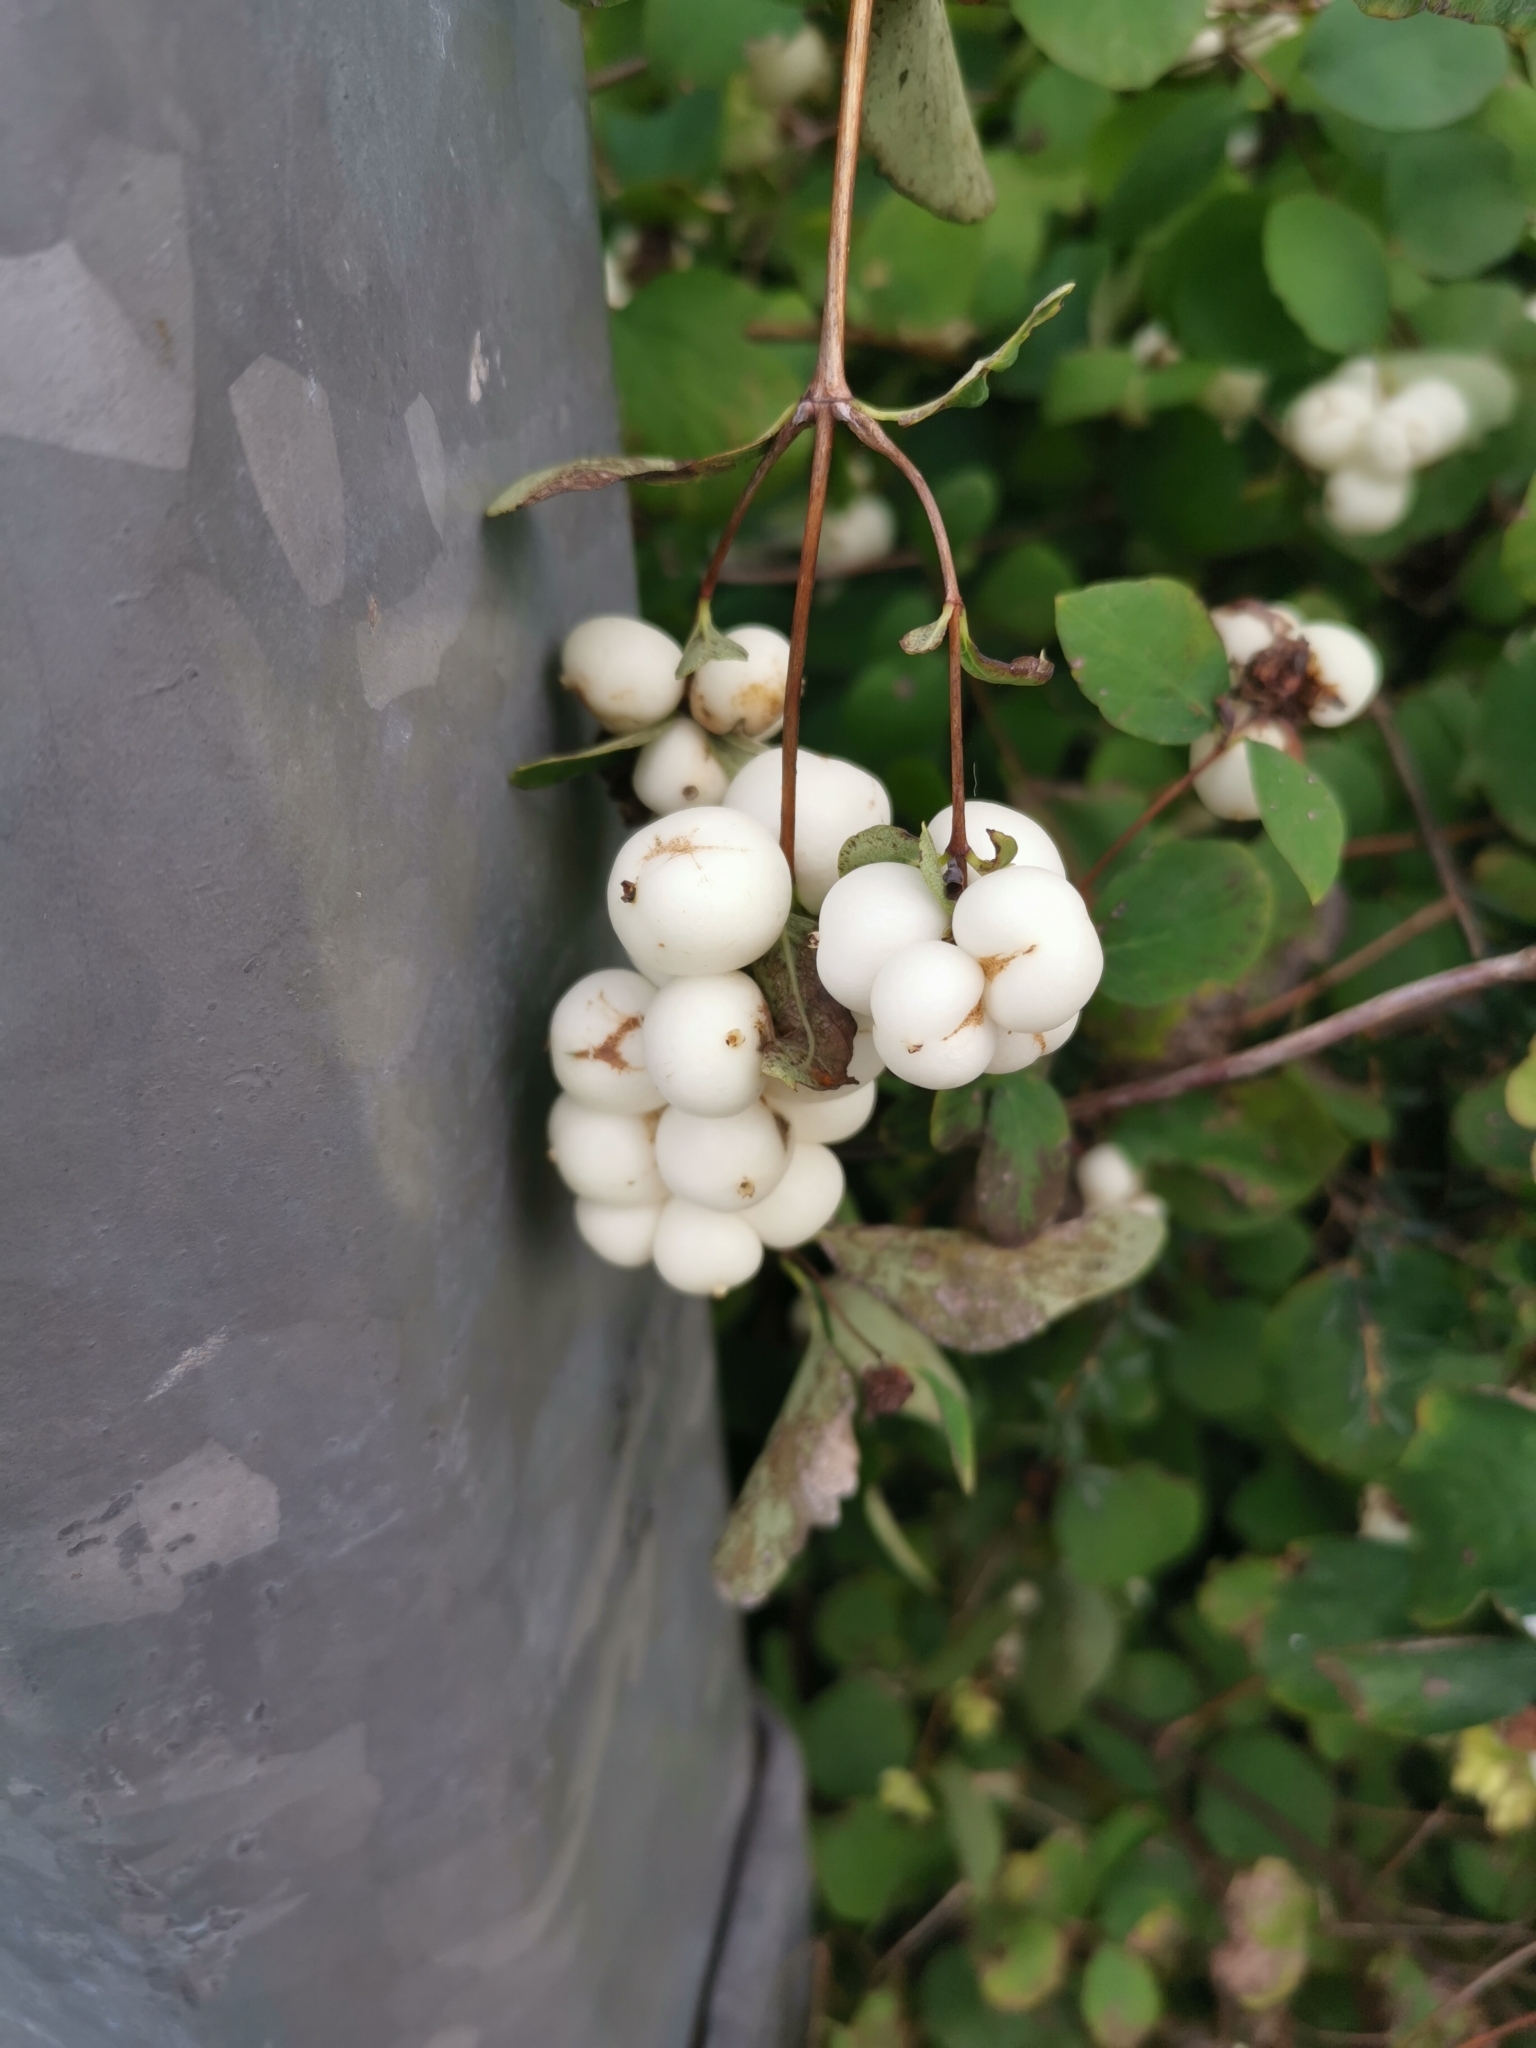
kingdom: Plantae
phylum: Tracheophyta
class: Magnoliopsida
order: Dipsacales
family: Caprifoliaceae
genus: Symphoricarpos
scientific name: Symphoricarpos albus
